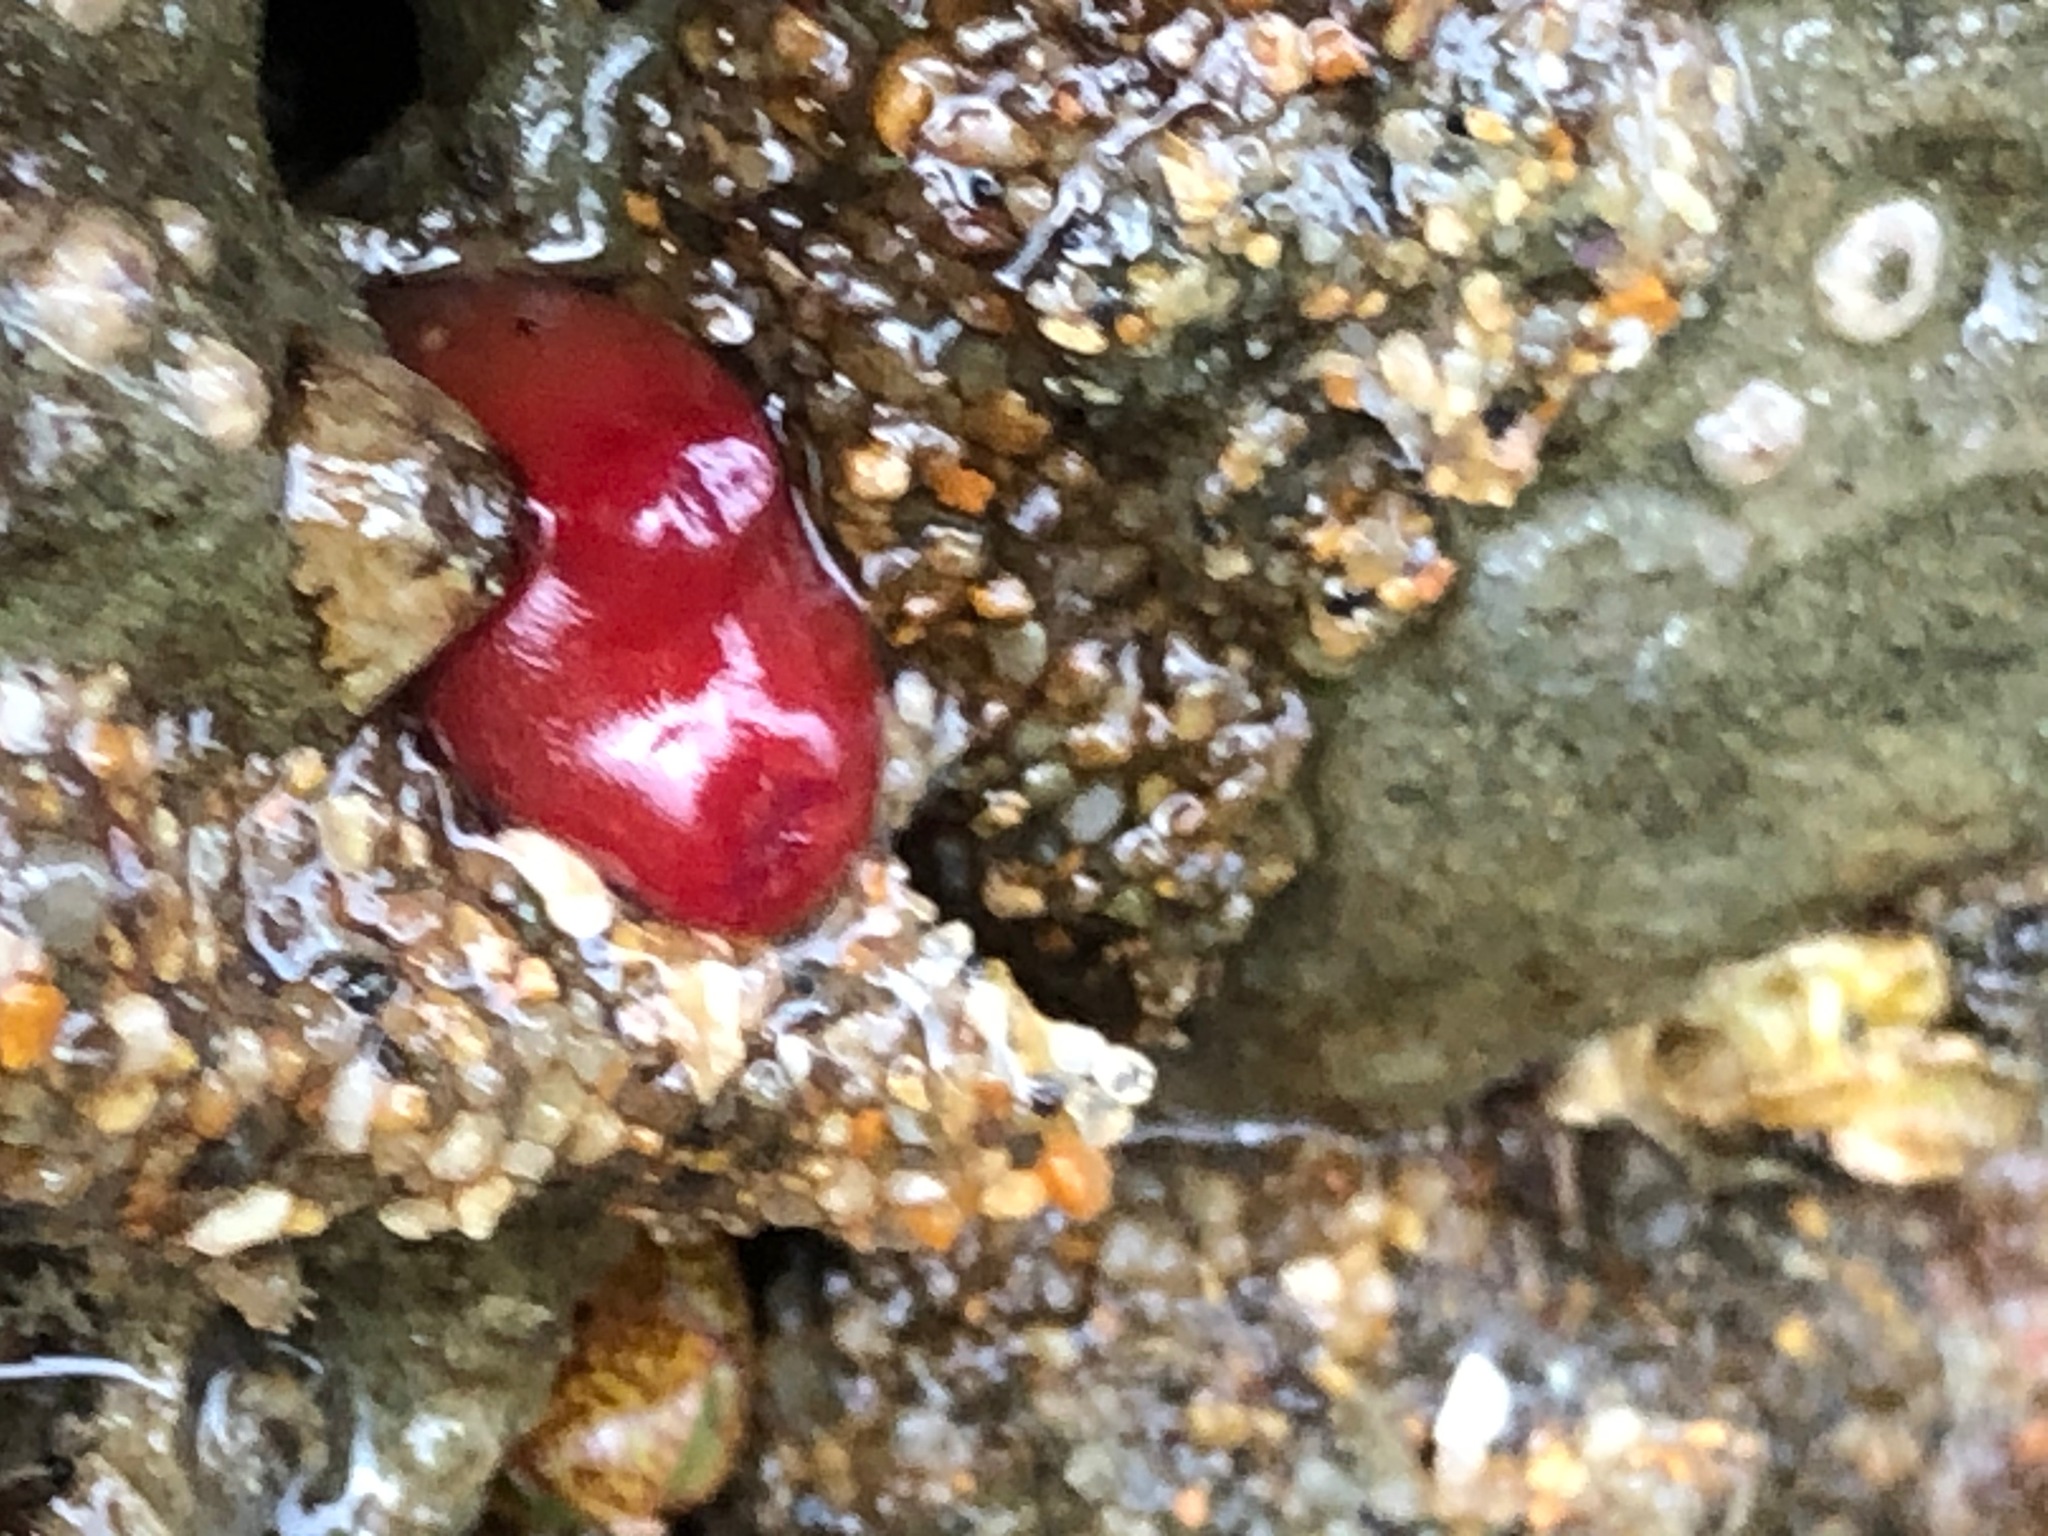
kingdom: Animalia
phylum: Mollusca
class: Bivalvia
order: Adapedonta
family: Hiatellidae
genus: Hiatella
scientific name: Hiatella arctica
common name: Arctic hiatella
